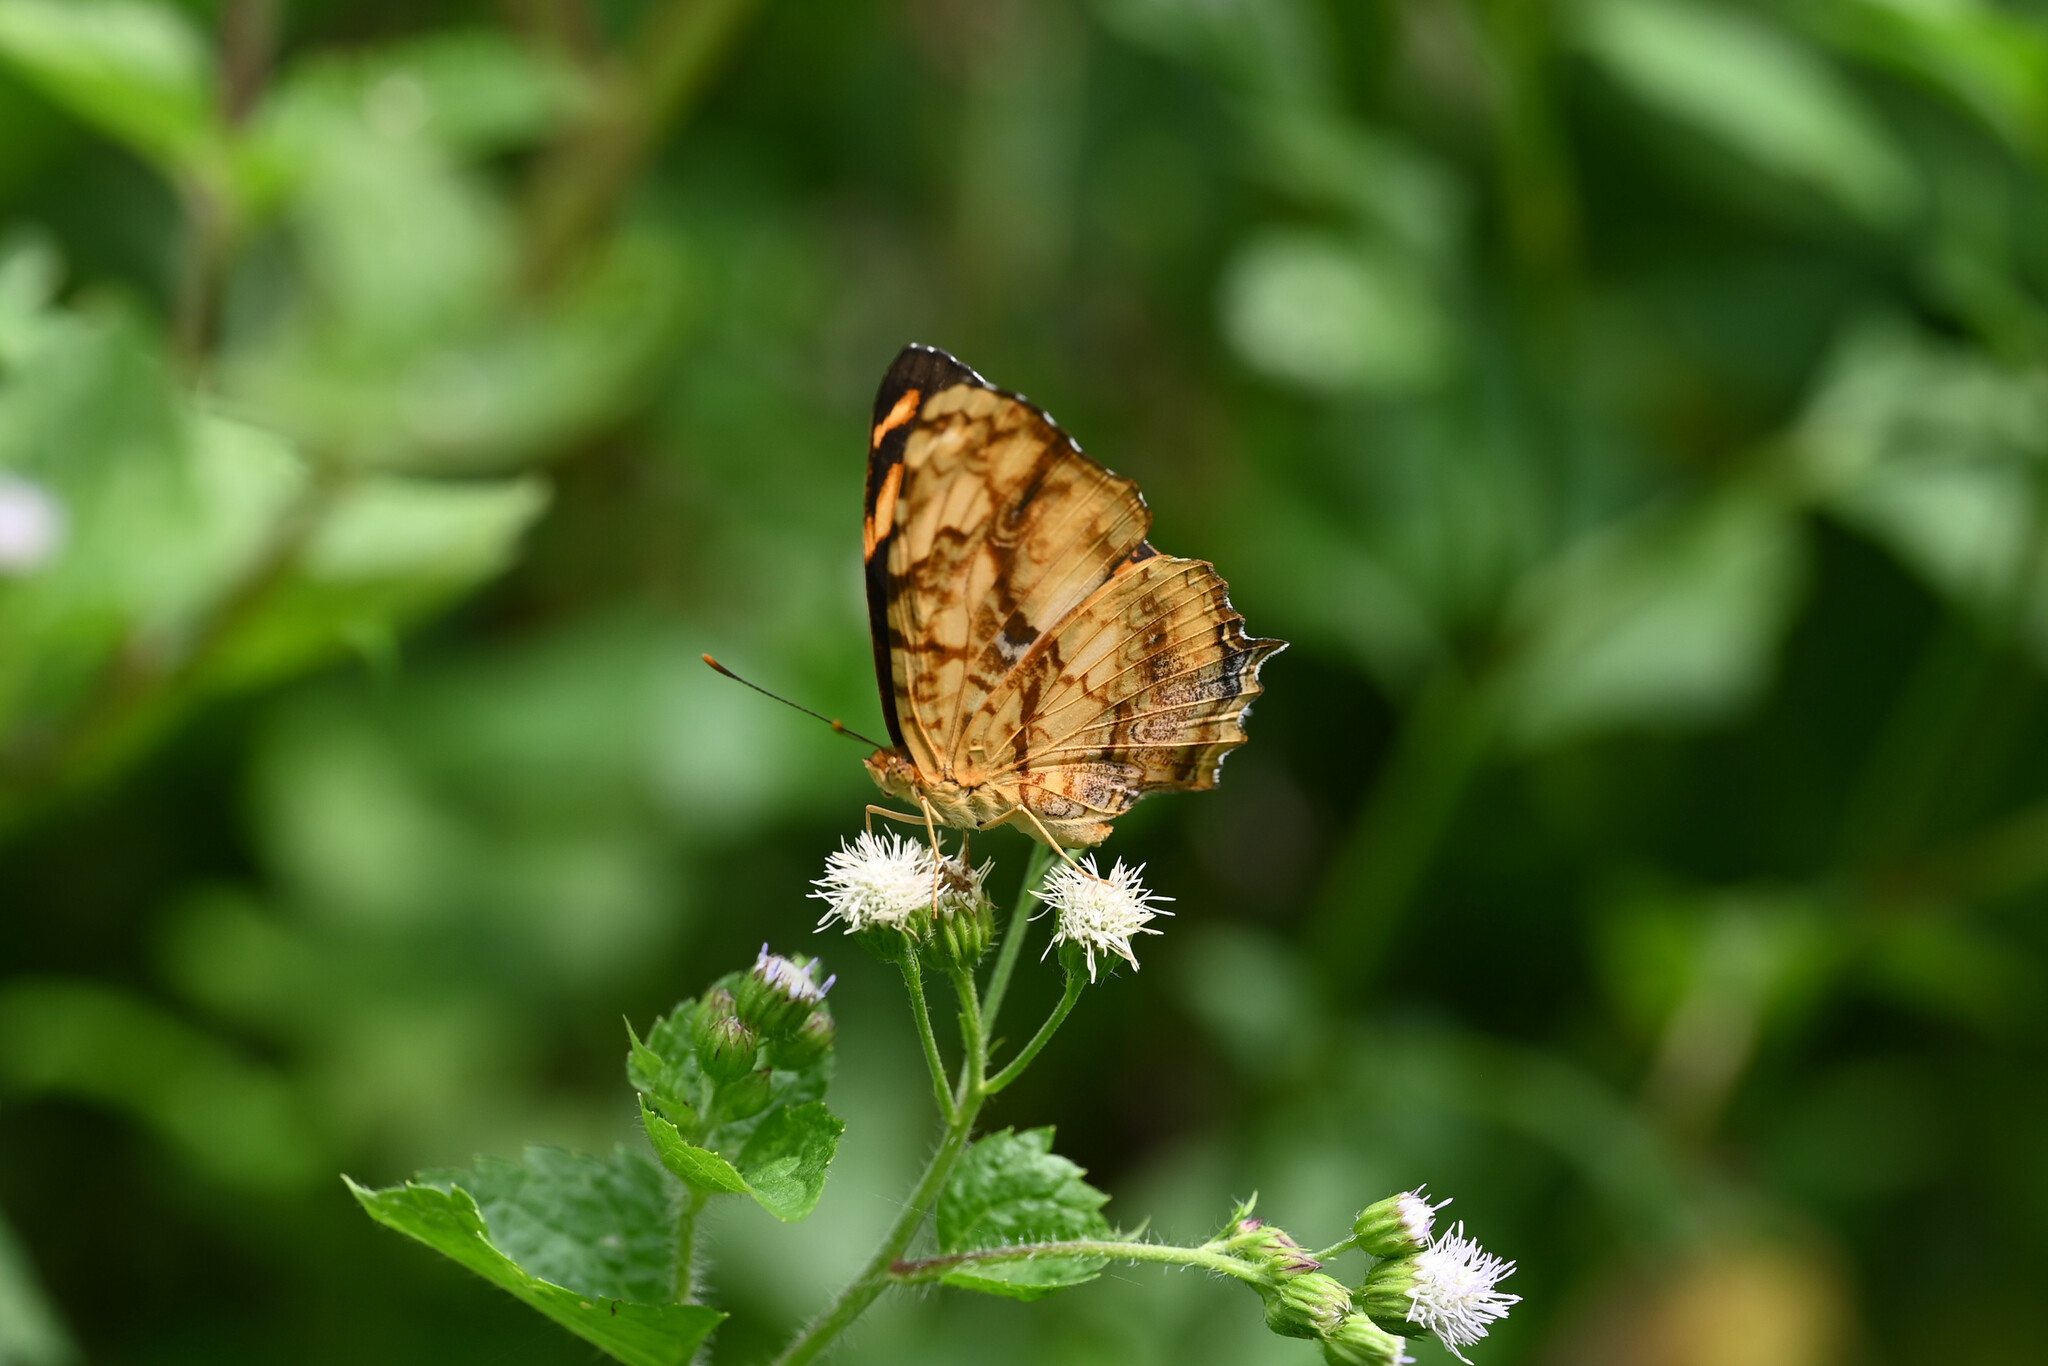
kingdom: Animalia
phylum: Arthropoda
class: Insecta
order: Lepidoptera
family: Nymphalidae
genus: Symbrenthia
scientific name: Symbrenthia hypselis
